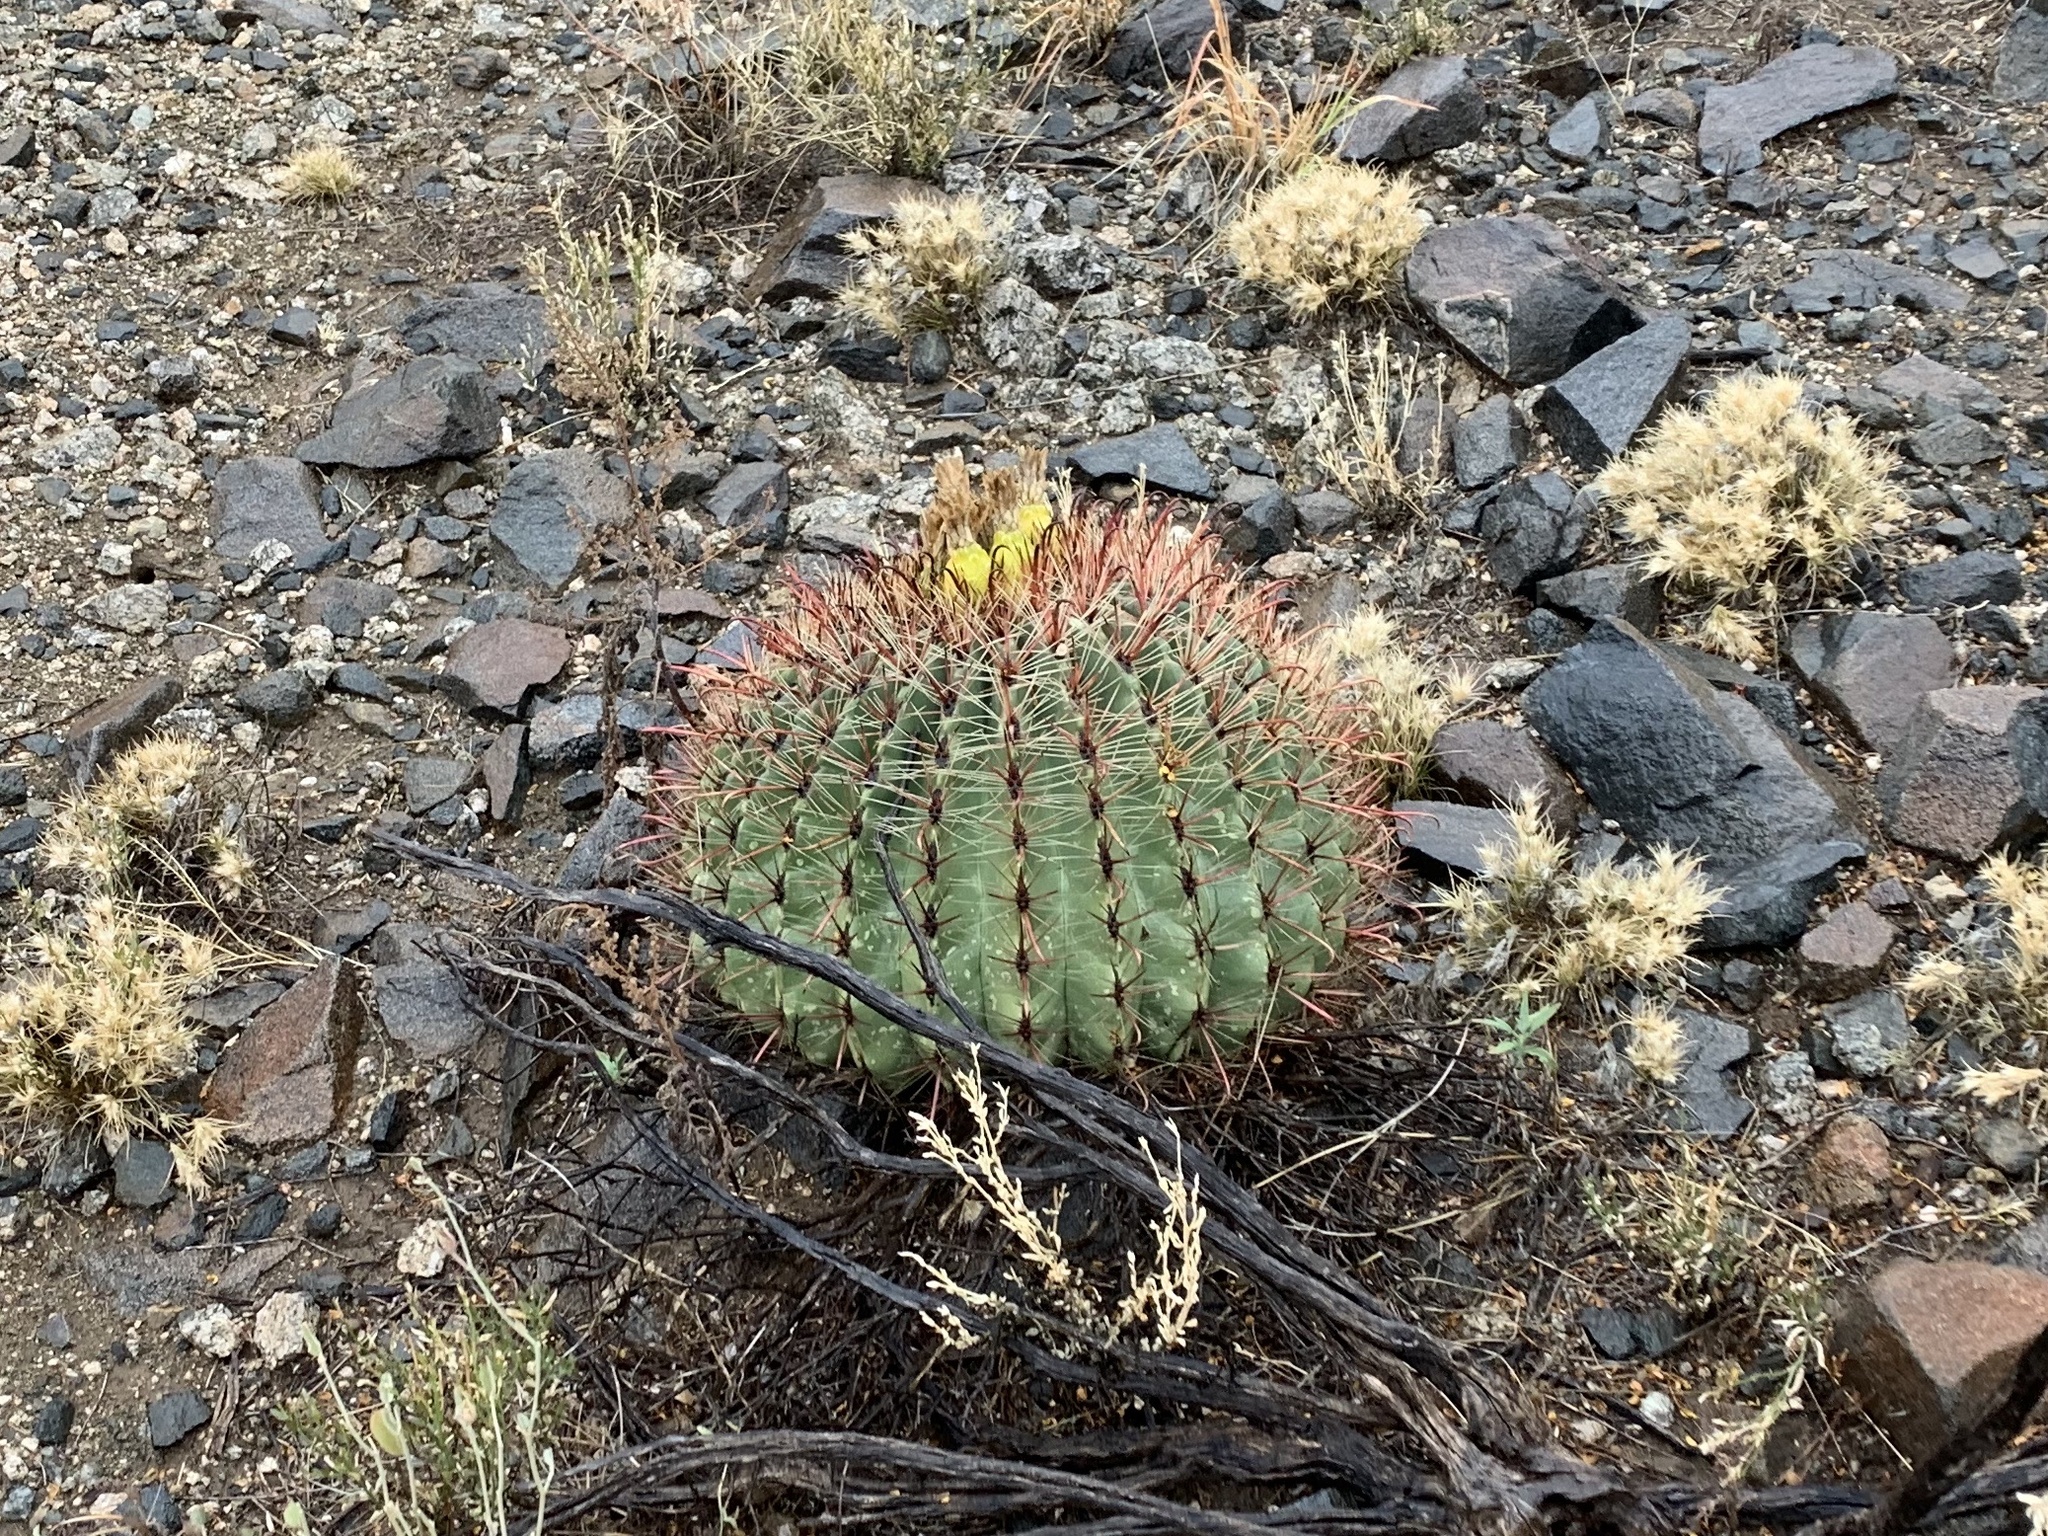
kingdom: Plantae
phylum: Tracheophyta
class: Magnoliopsida
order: Caryophyllales
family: Cactaceae
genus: Ferocactus
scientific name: Ferocactus wislizeni
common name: Candy barrel cactus
